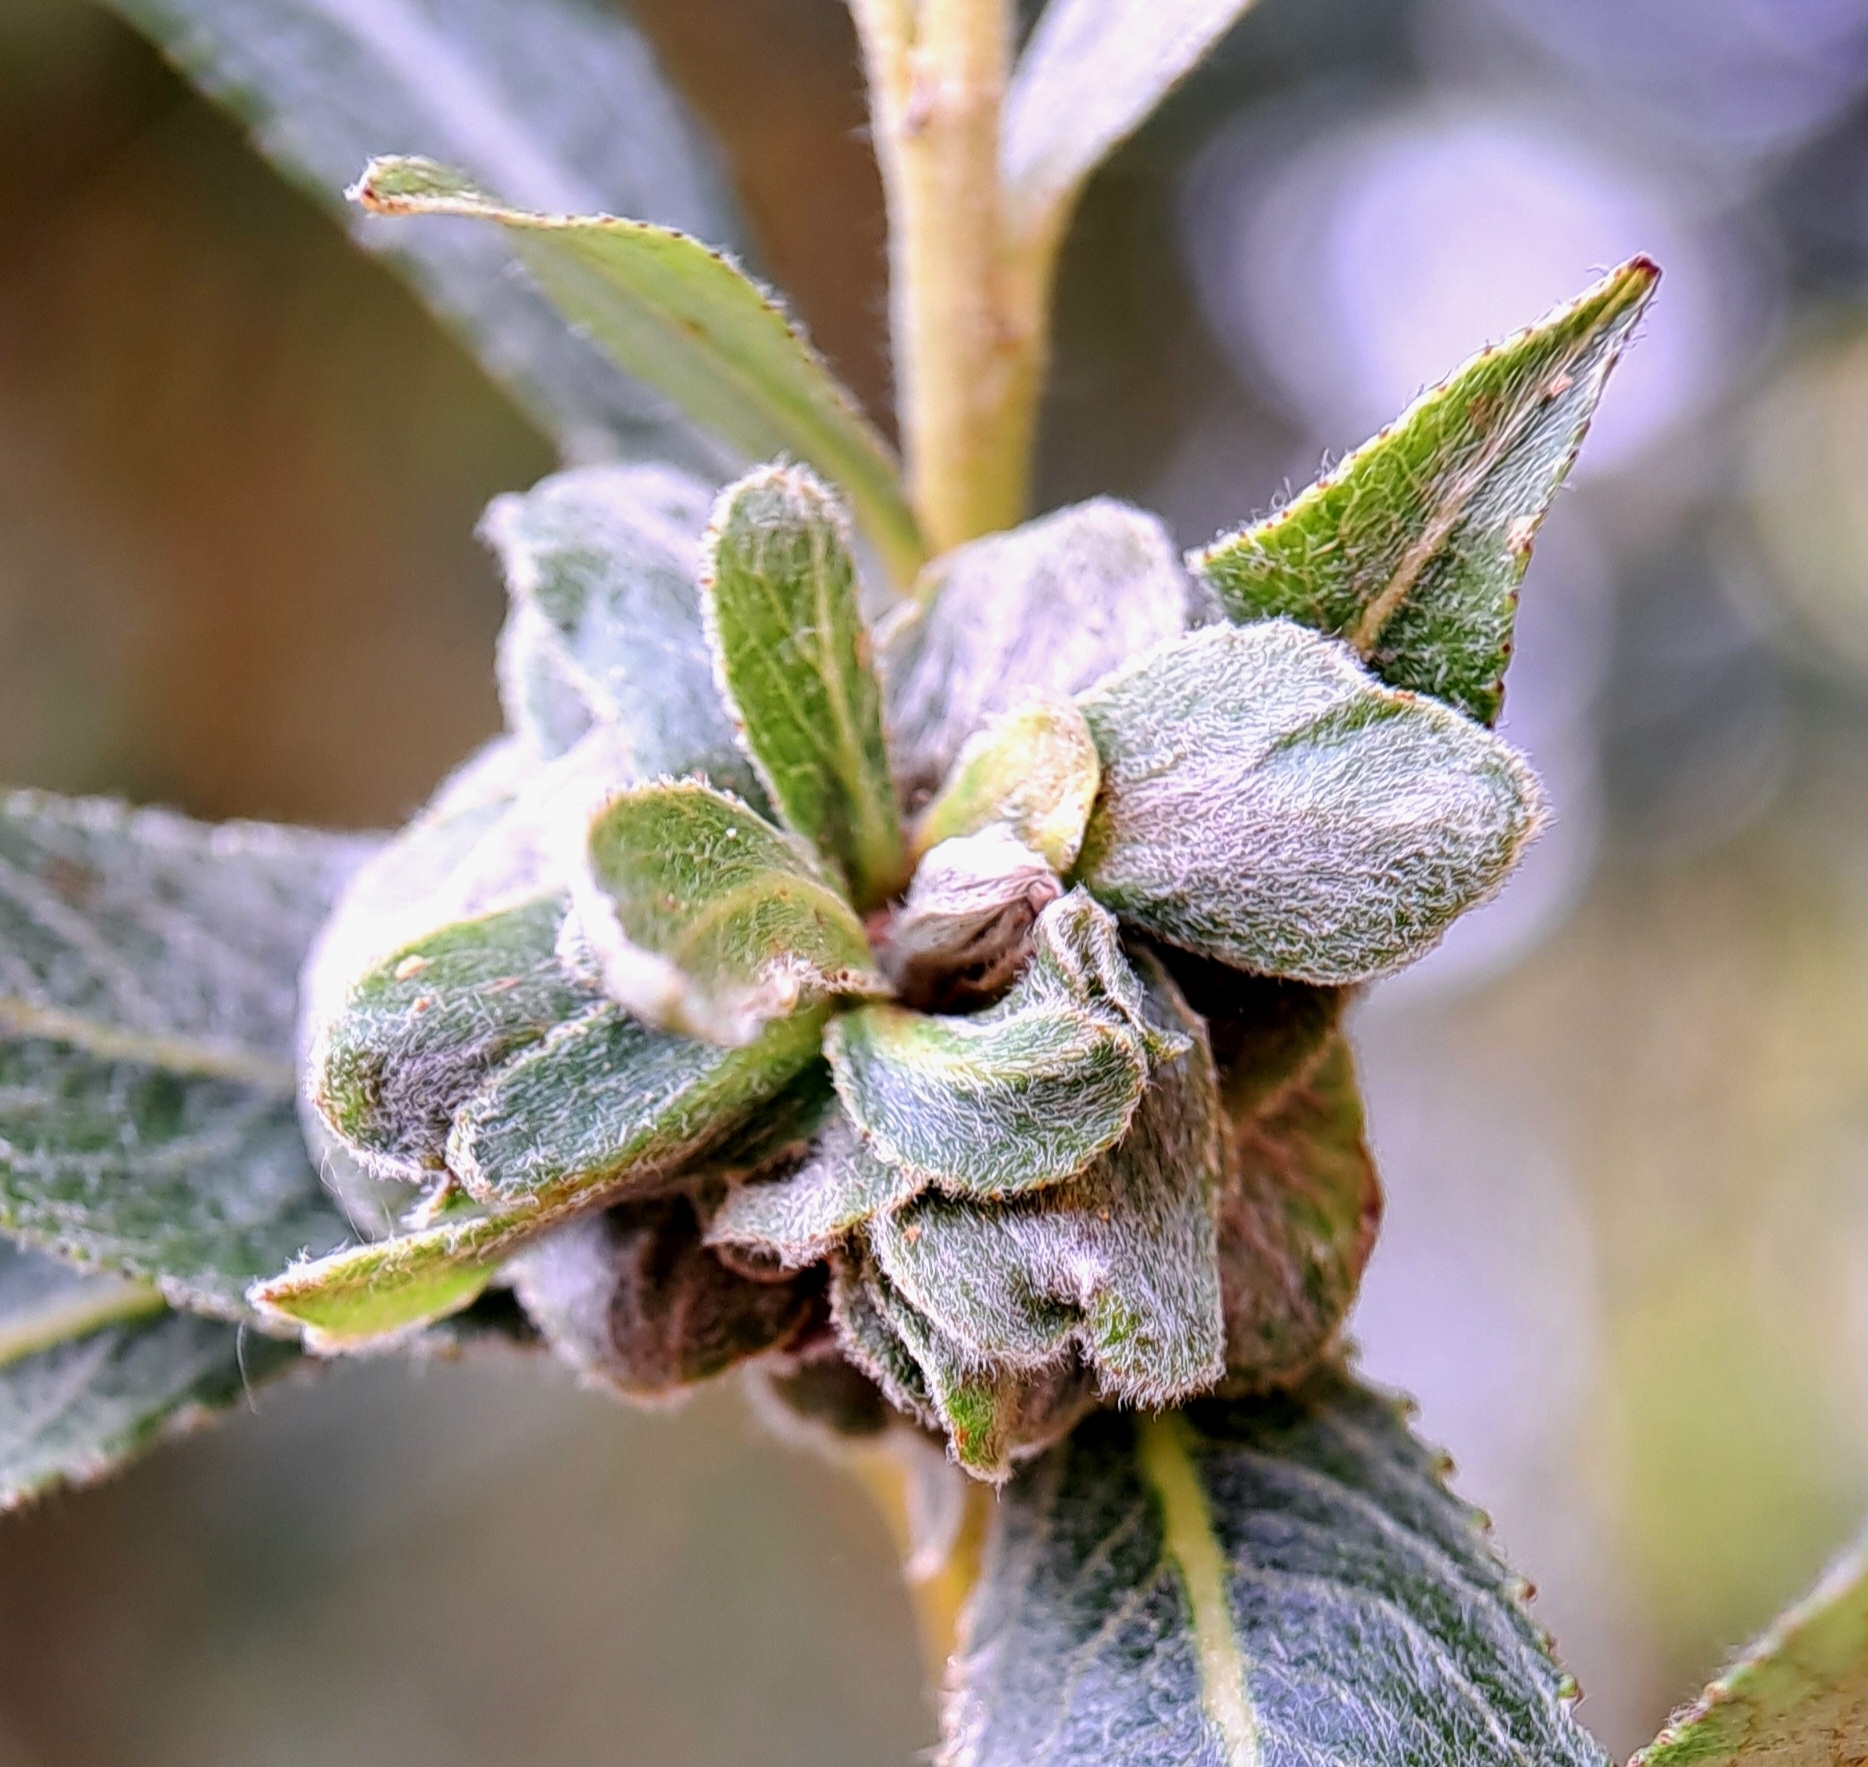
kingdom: Animalia
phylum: Arthropoda
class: Insecta
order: Diptera
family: Cecidomyiidae
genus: Rabdophaga
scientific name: Rabdophaga rosaria
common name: Willow rose gall midge
